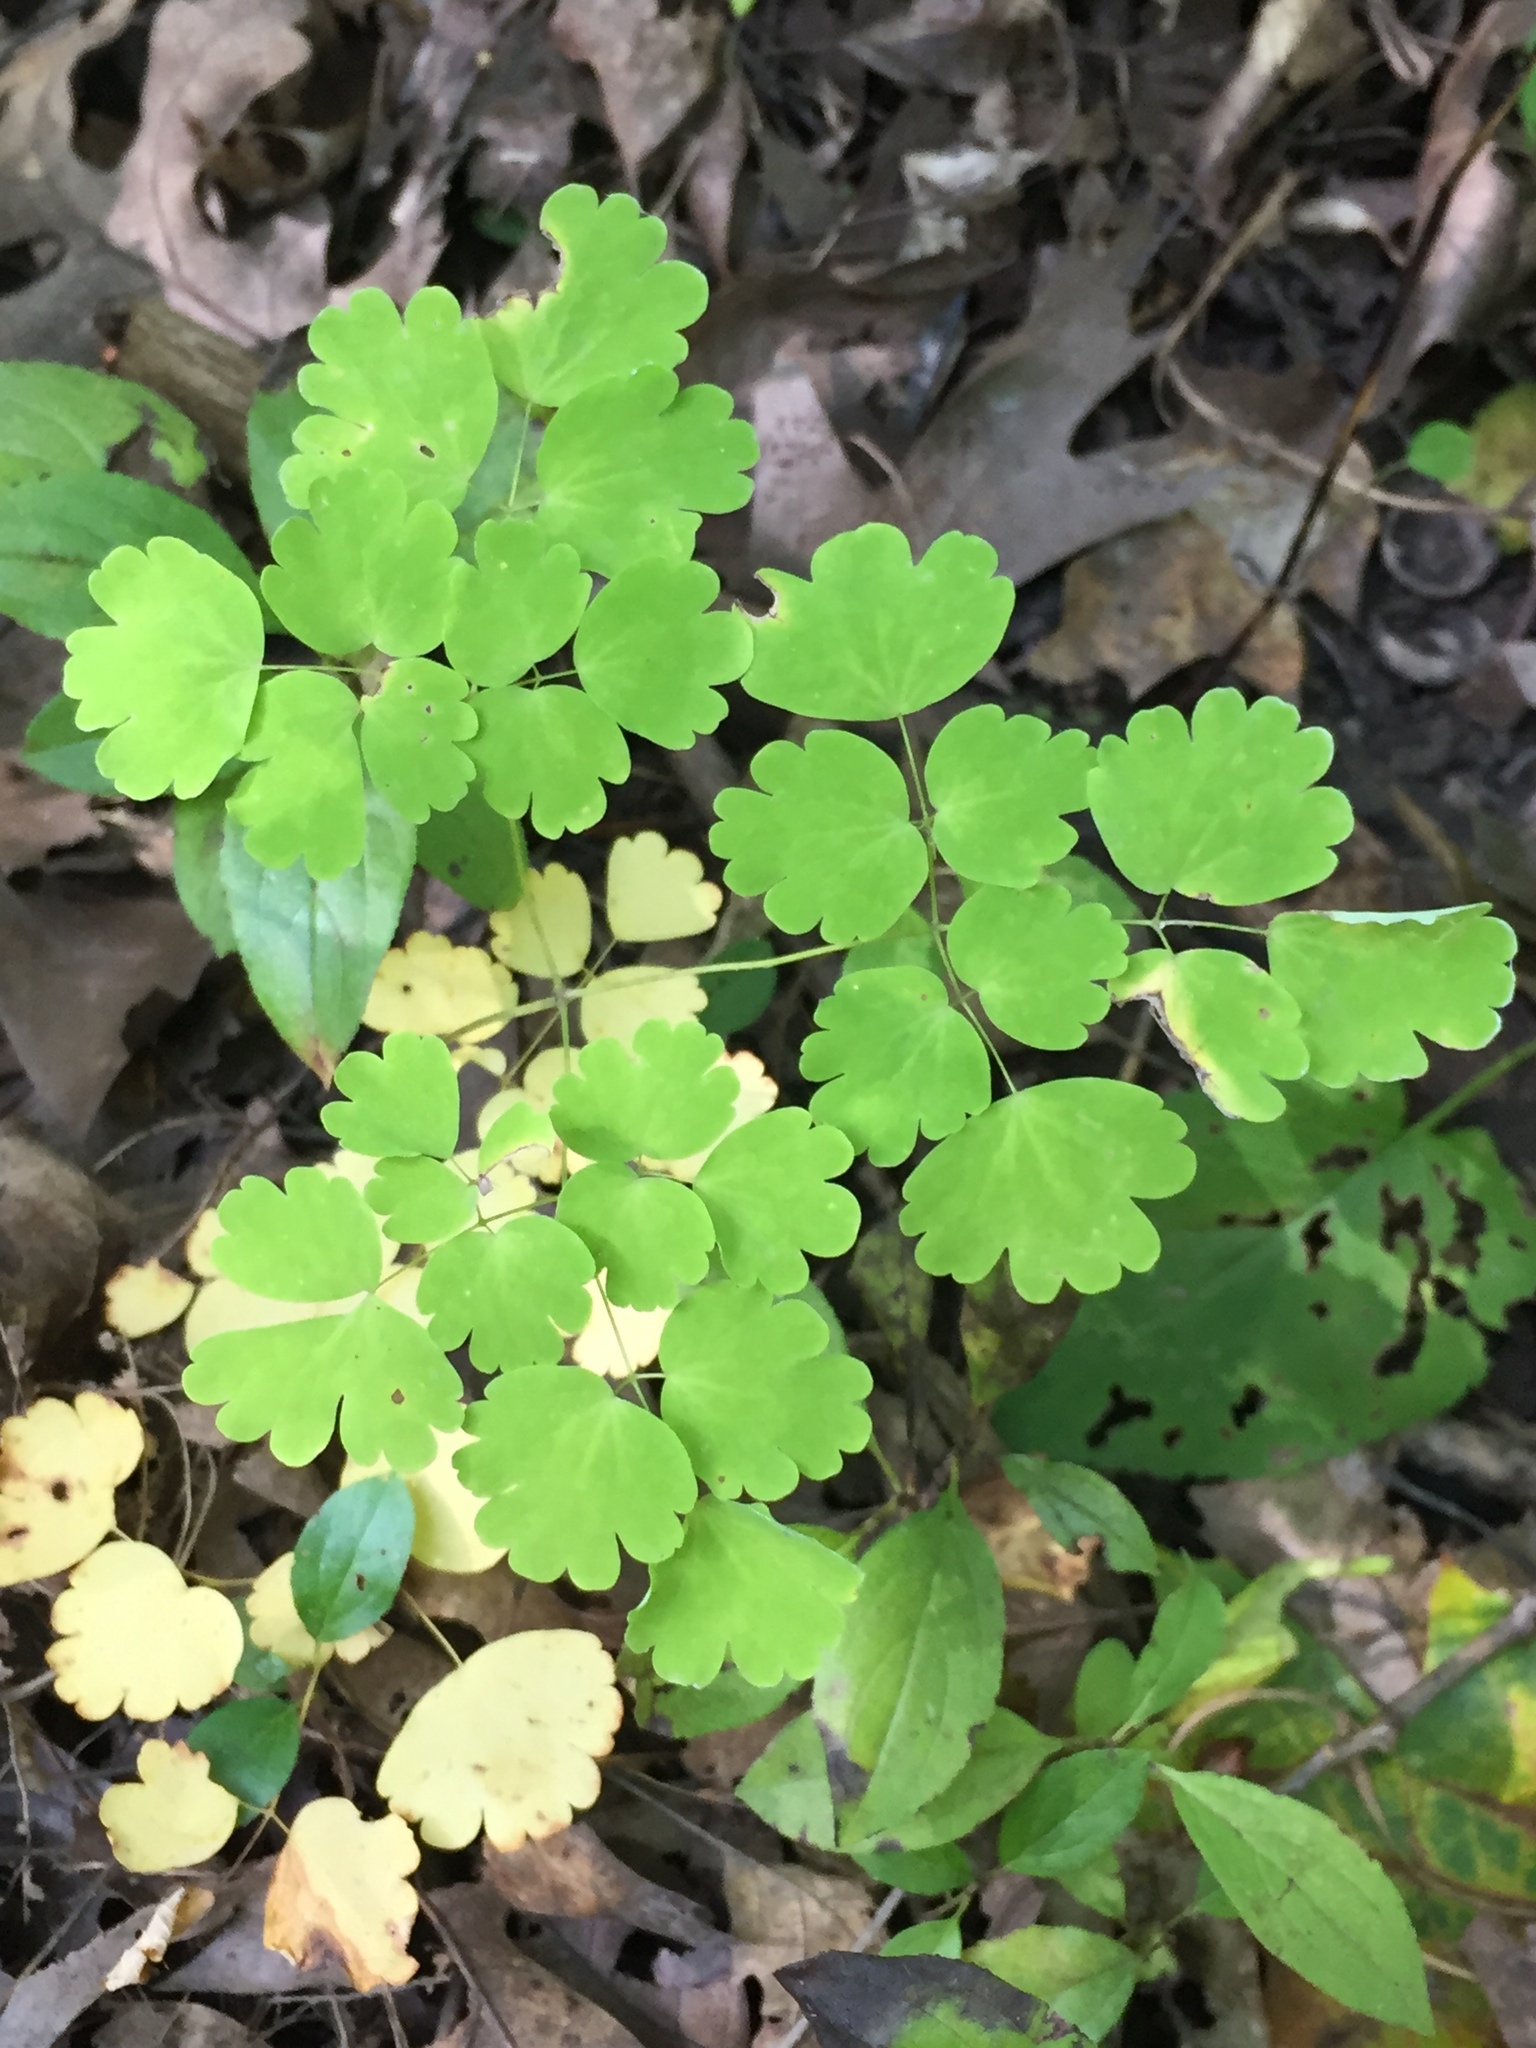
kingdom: Plantae
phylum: Tracheophyta
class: Magnoliopsida
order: Ranunculales
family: Ranunculaceae
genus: Thalictrum
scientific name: Thalictrum dioicum
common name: Early meadow-rue
